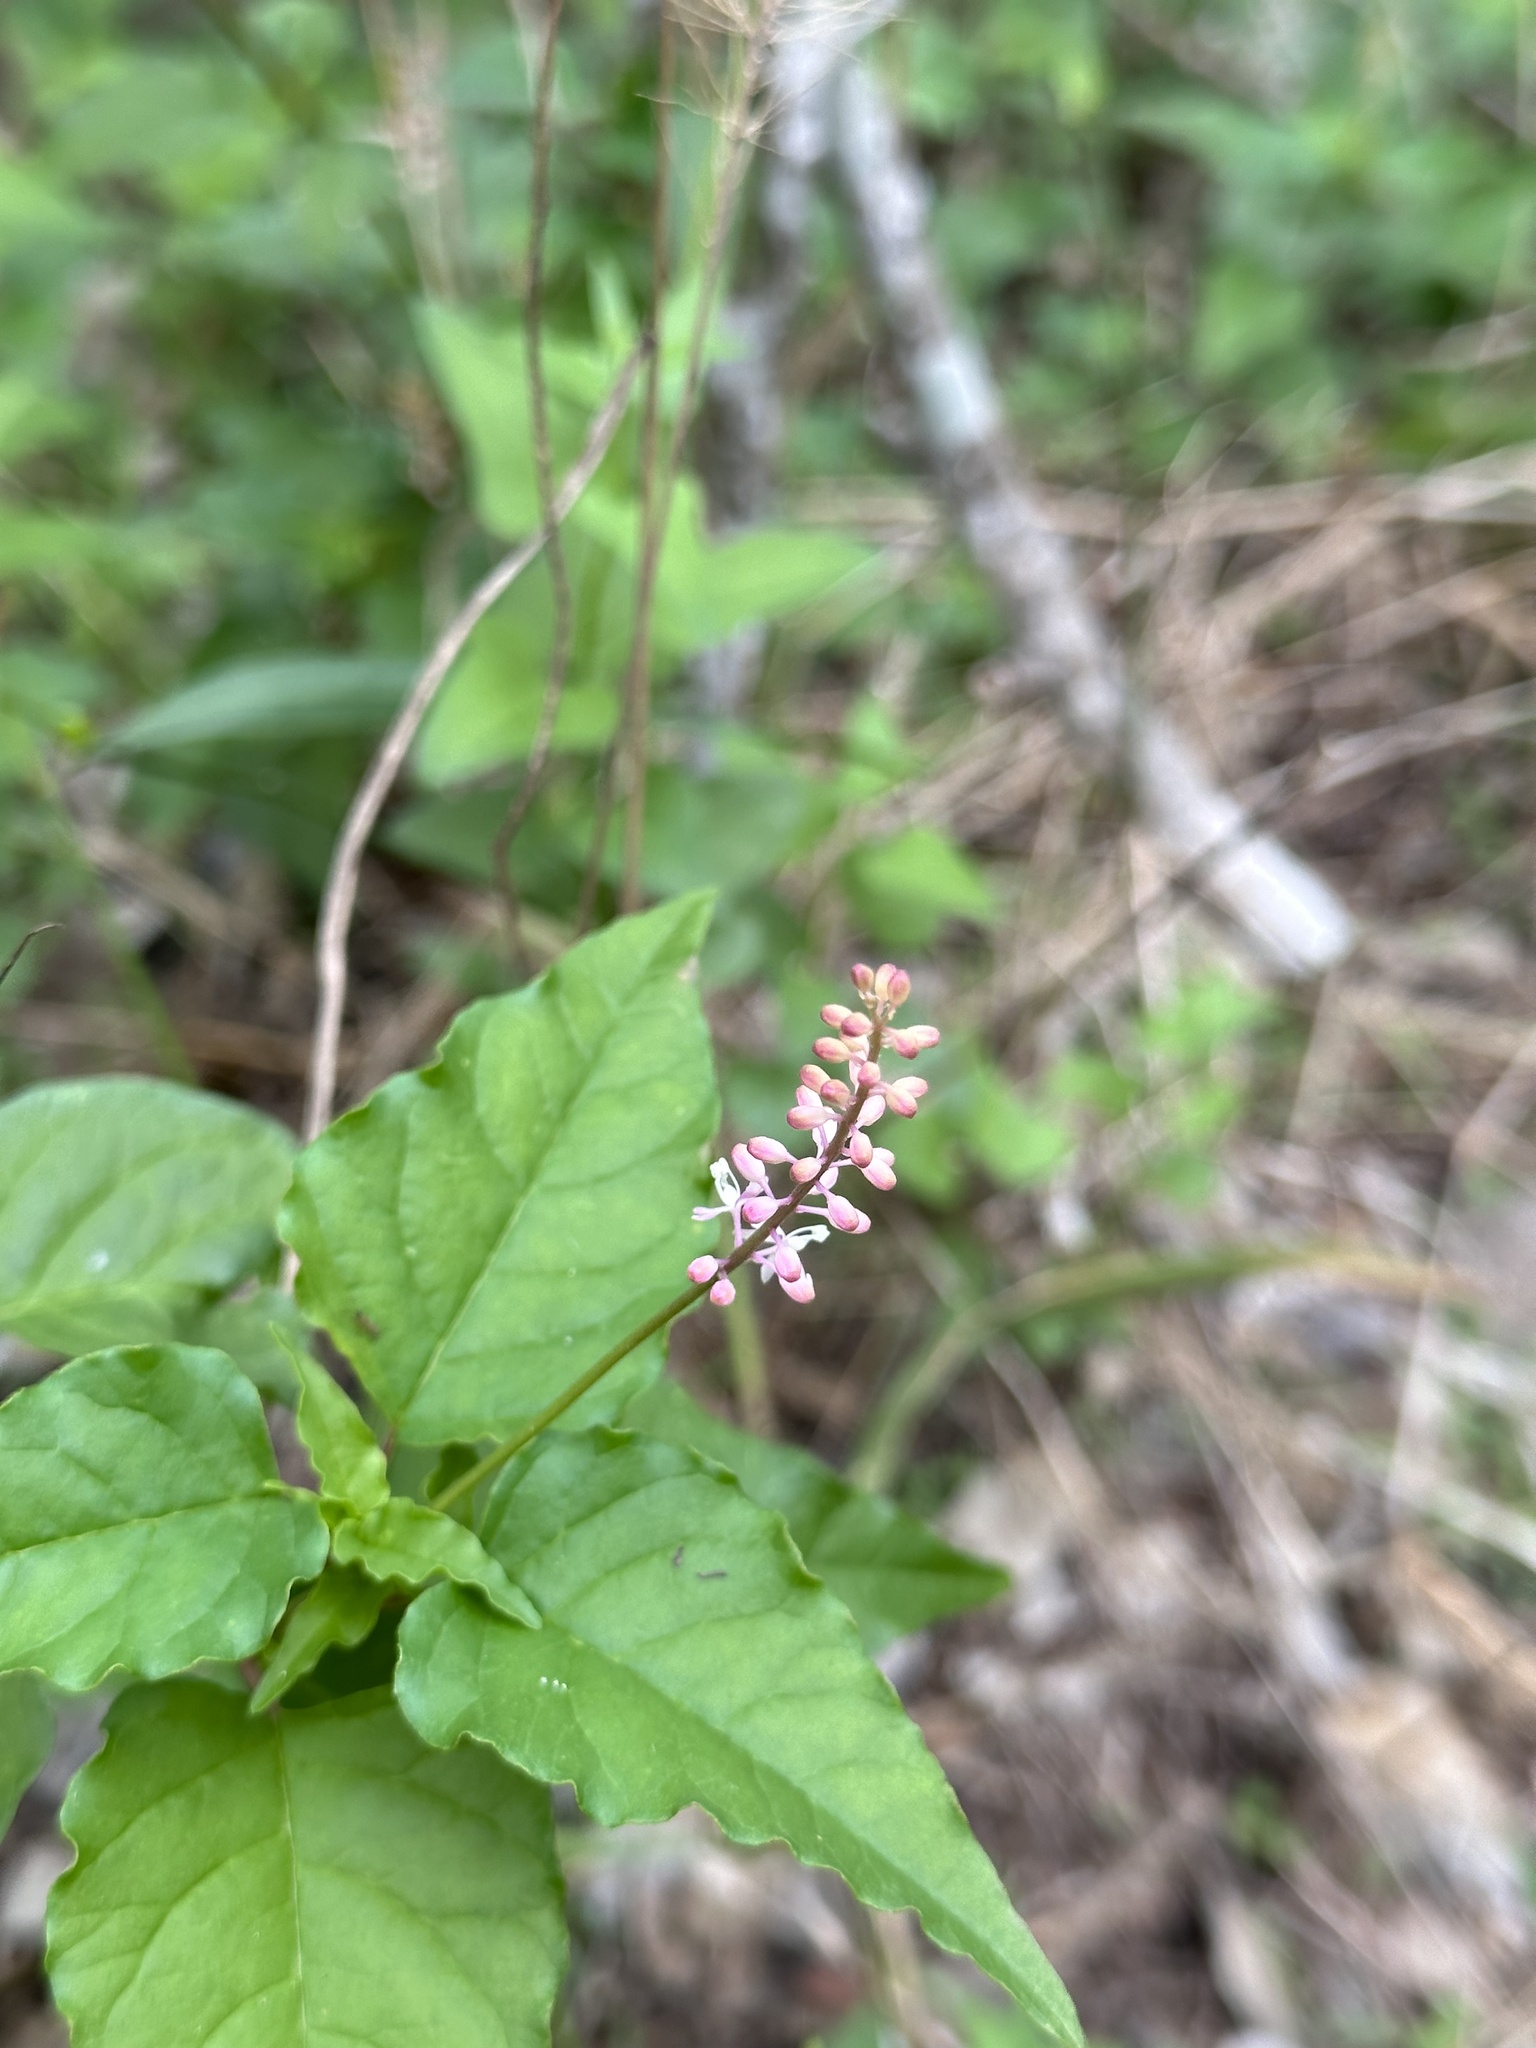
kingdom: Plantae
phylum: Tracheophyta
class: Magnoliopsida
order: Caryophyllales
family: Phytolaccaceae
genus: Rivina
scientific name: Rivina humilis
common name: Rougeplant
